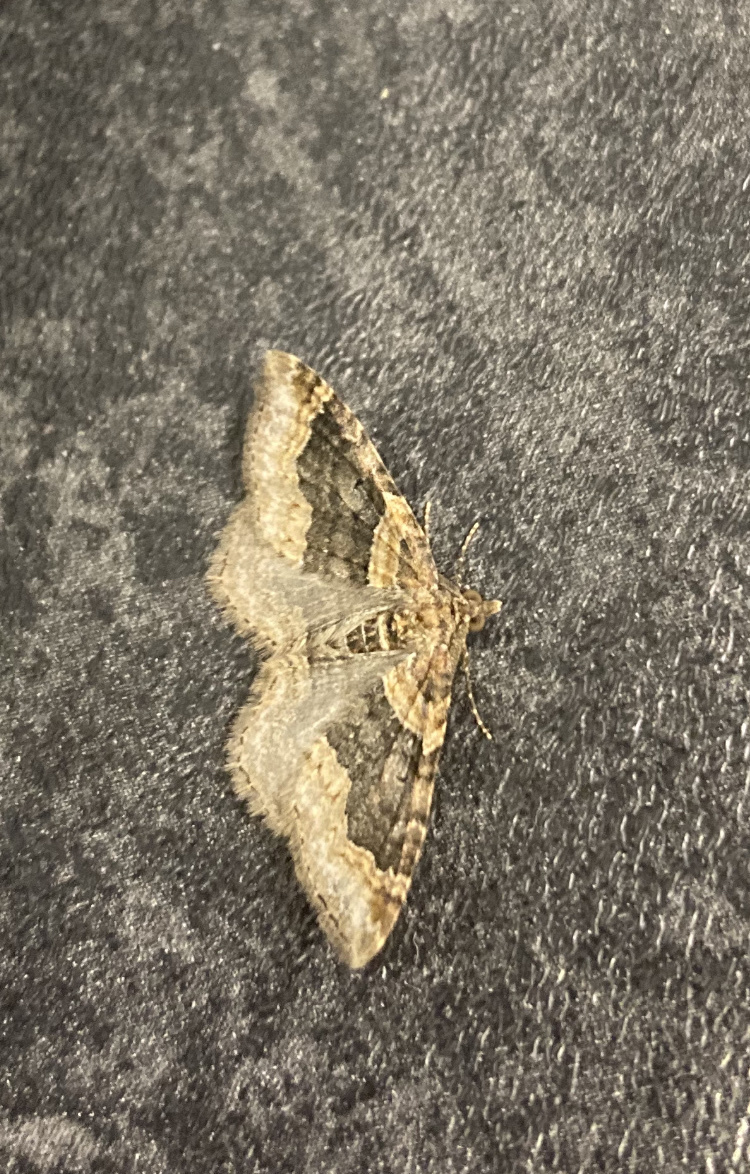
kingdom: Animalia
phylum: Arthropoda
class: Insecta
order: Lepidoptera
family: Geometridae
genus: Xanthorhoe
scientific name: Xanthorhoe ferrugata
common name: Dark-barred twin-spot carpet
